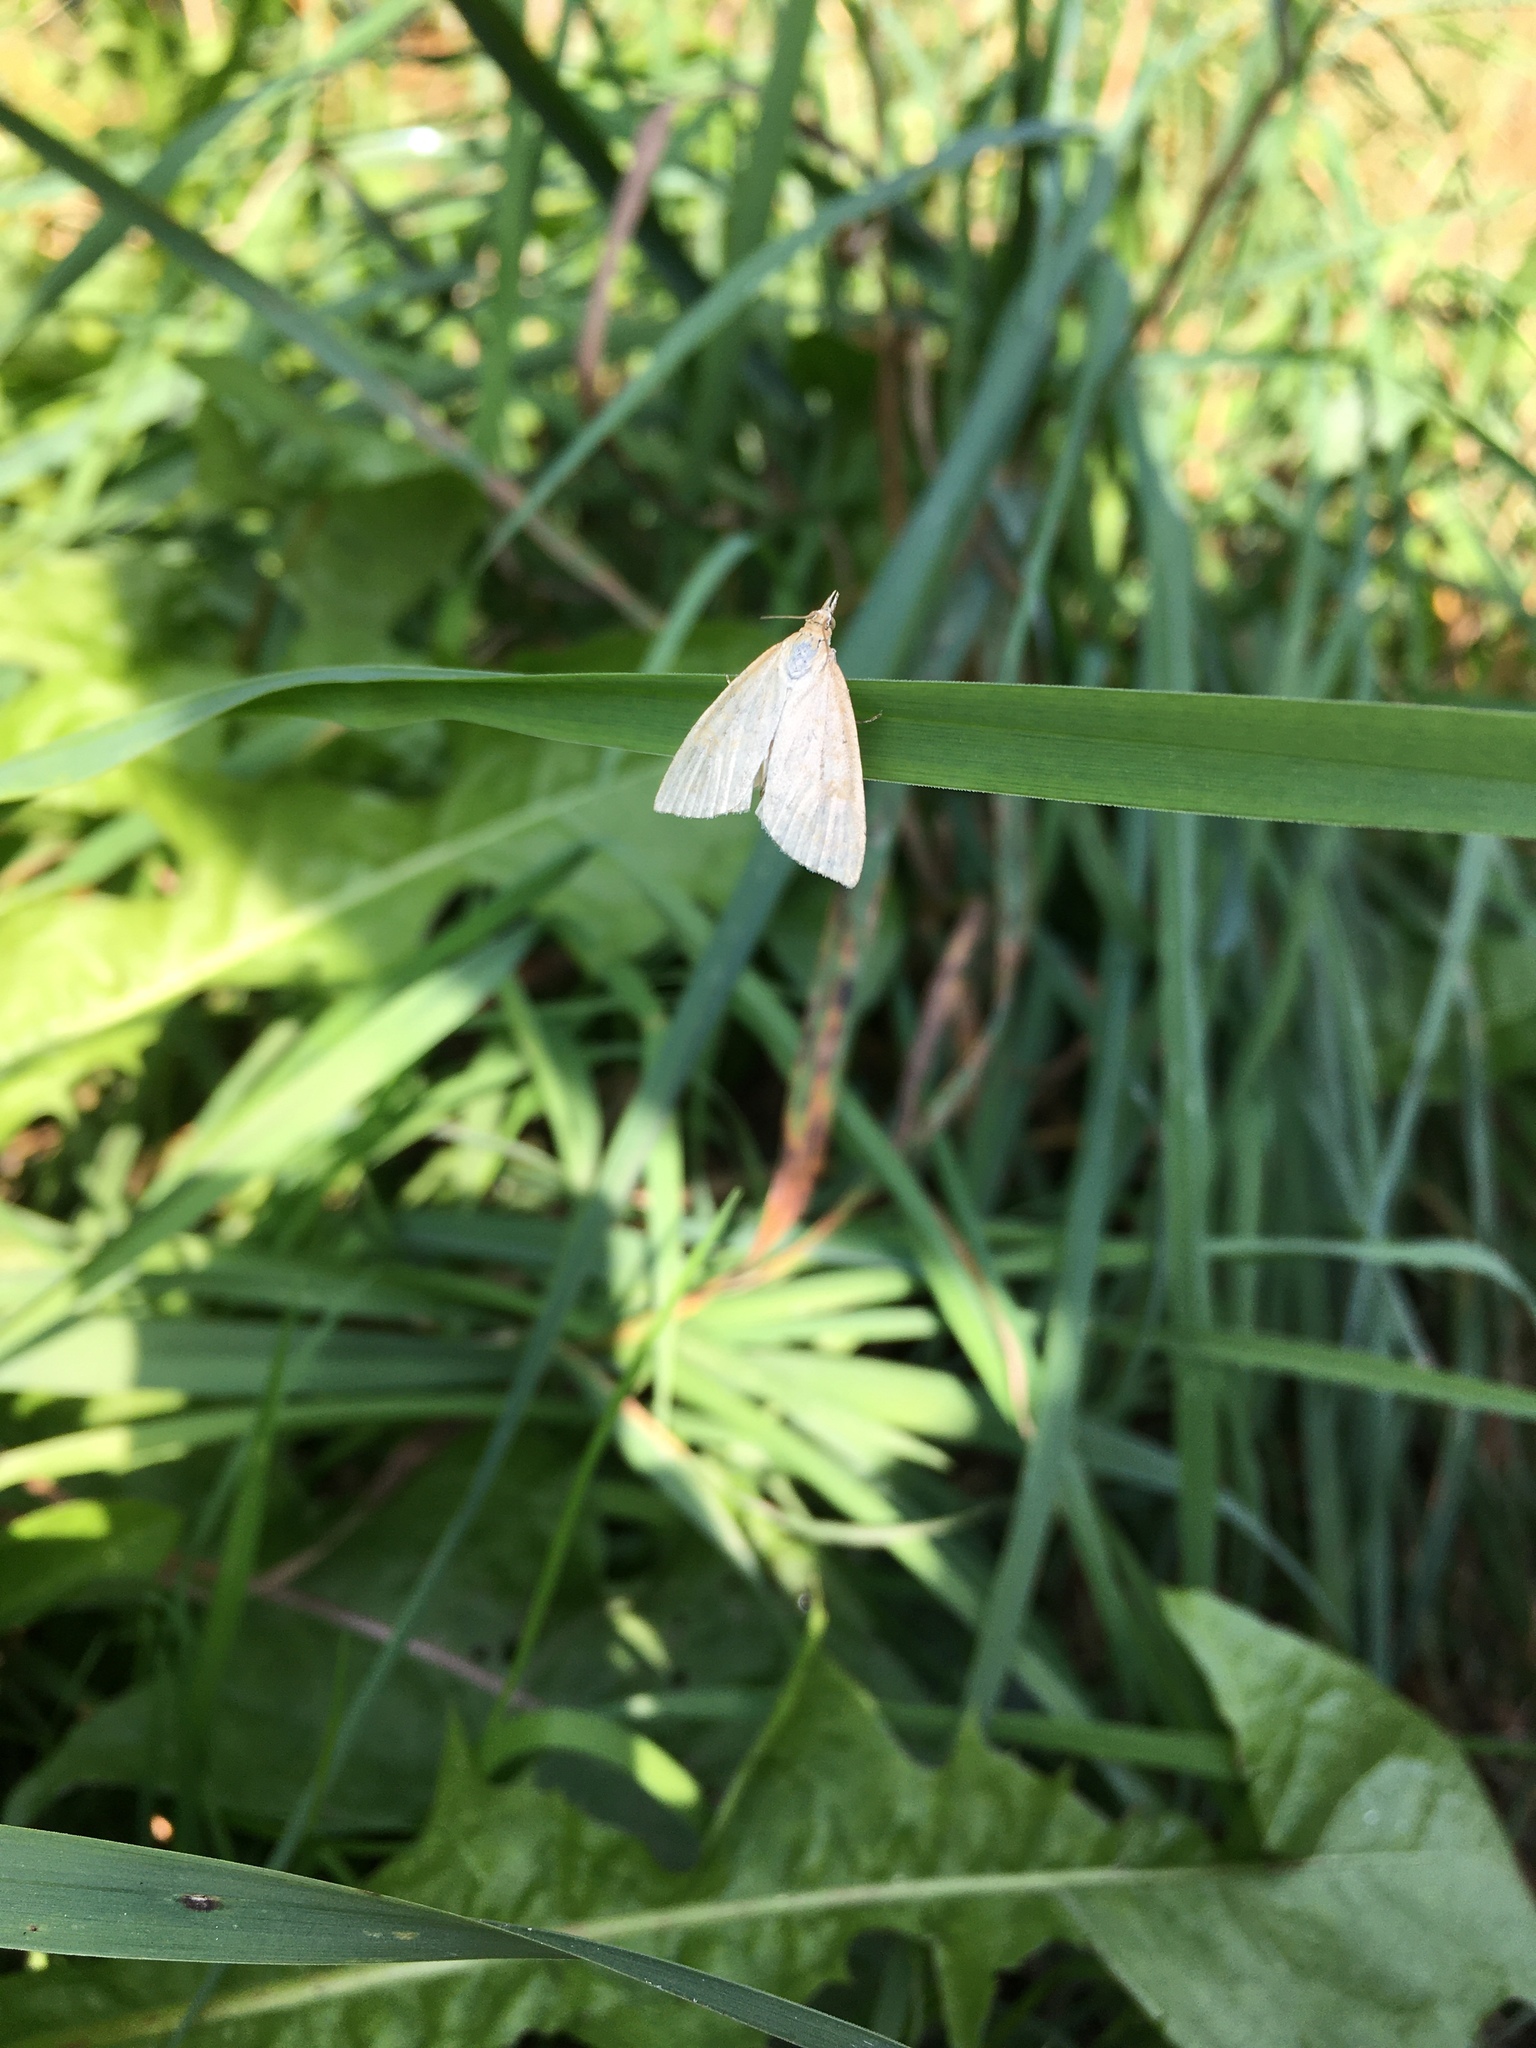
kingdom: Animalia
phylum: Arthropoda
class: Insecta
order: Lepidoptera
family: Crambidae
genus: Udea
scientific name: Udea lutealis
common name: Pale straw pearl
